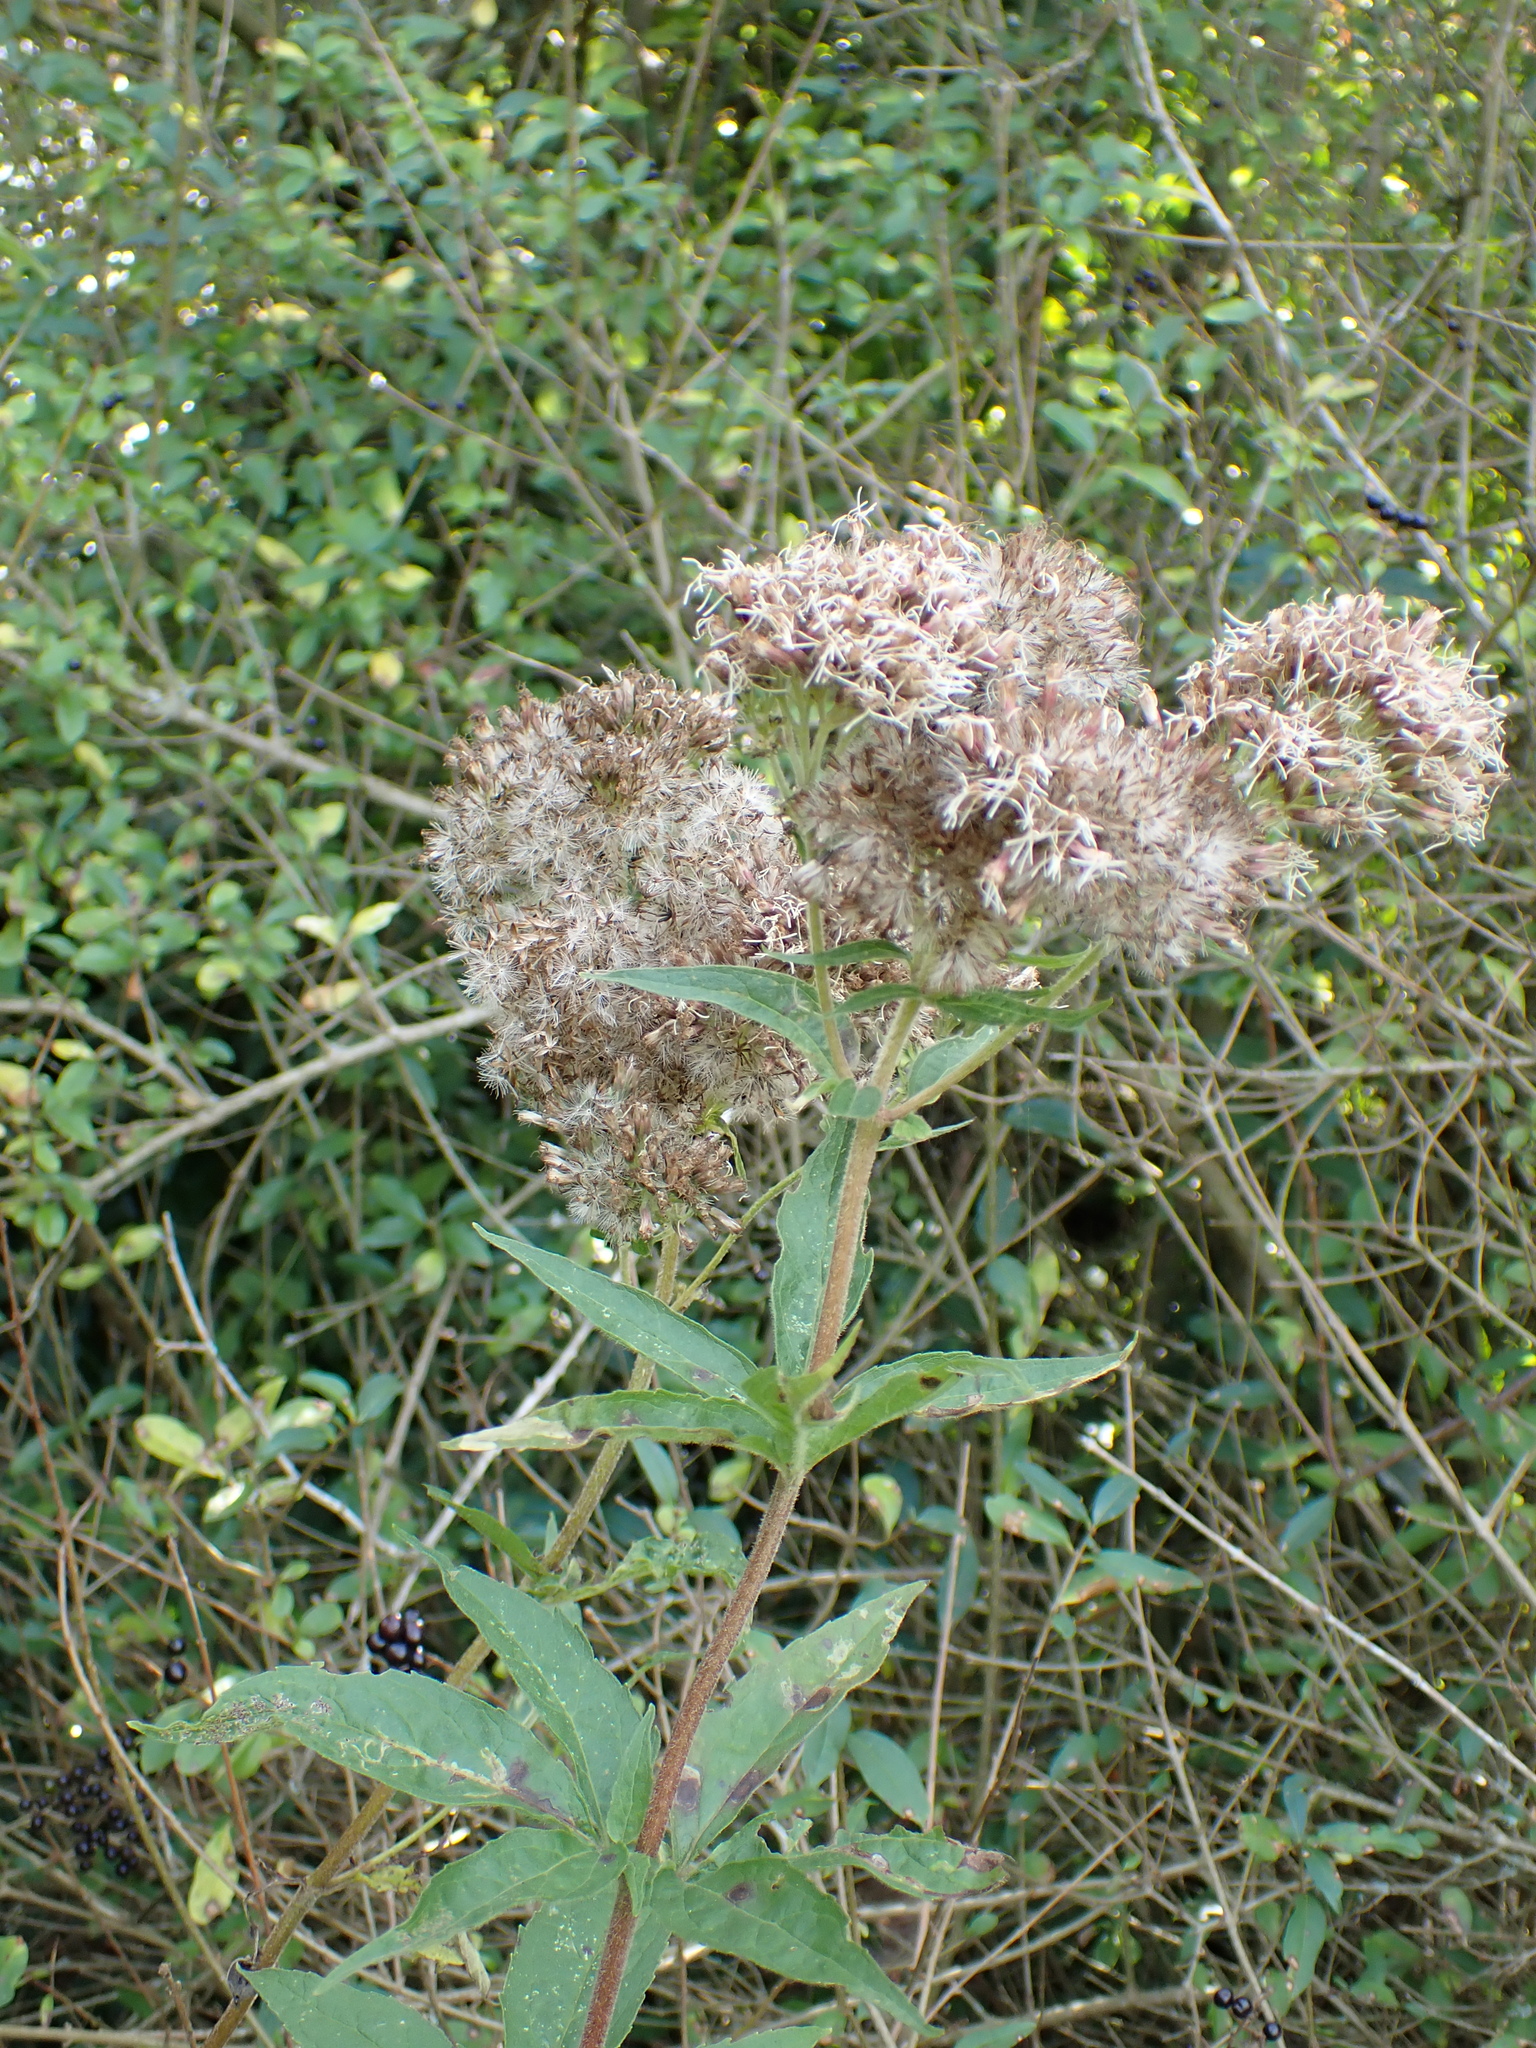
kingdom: Plantae
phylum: Tracheophyta
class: Magnoliopsida
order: Asterales
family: Asteraceae
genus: Eupatorium
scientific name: Eupatorium cannabinum
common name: Hemp-agrimony
